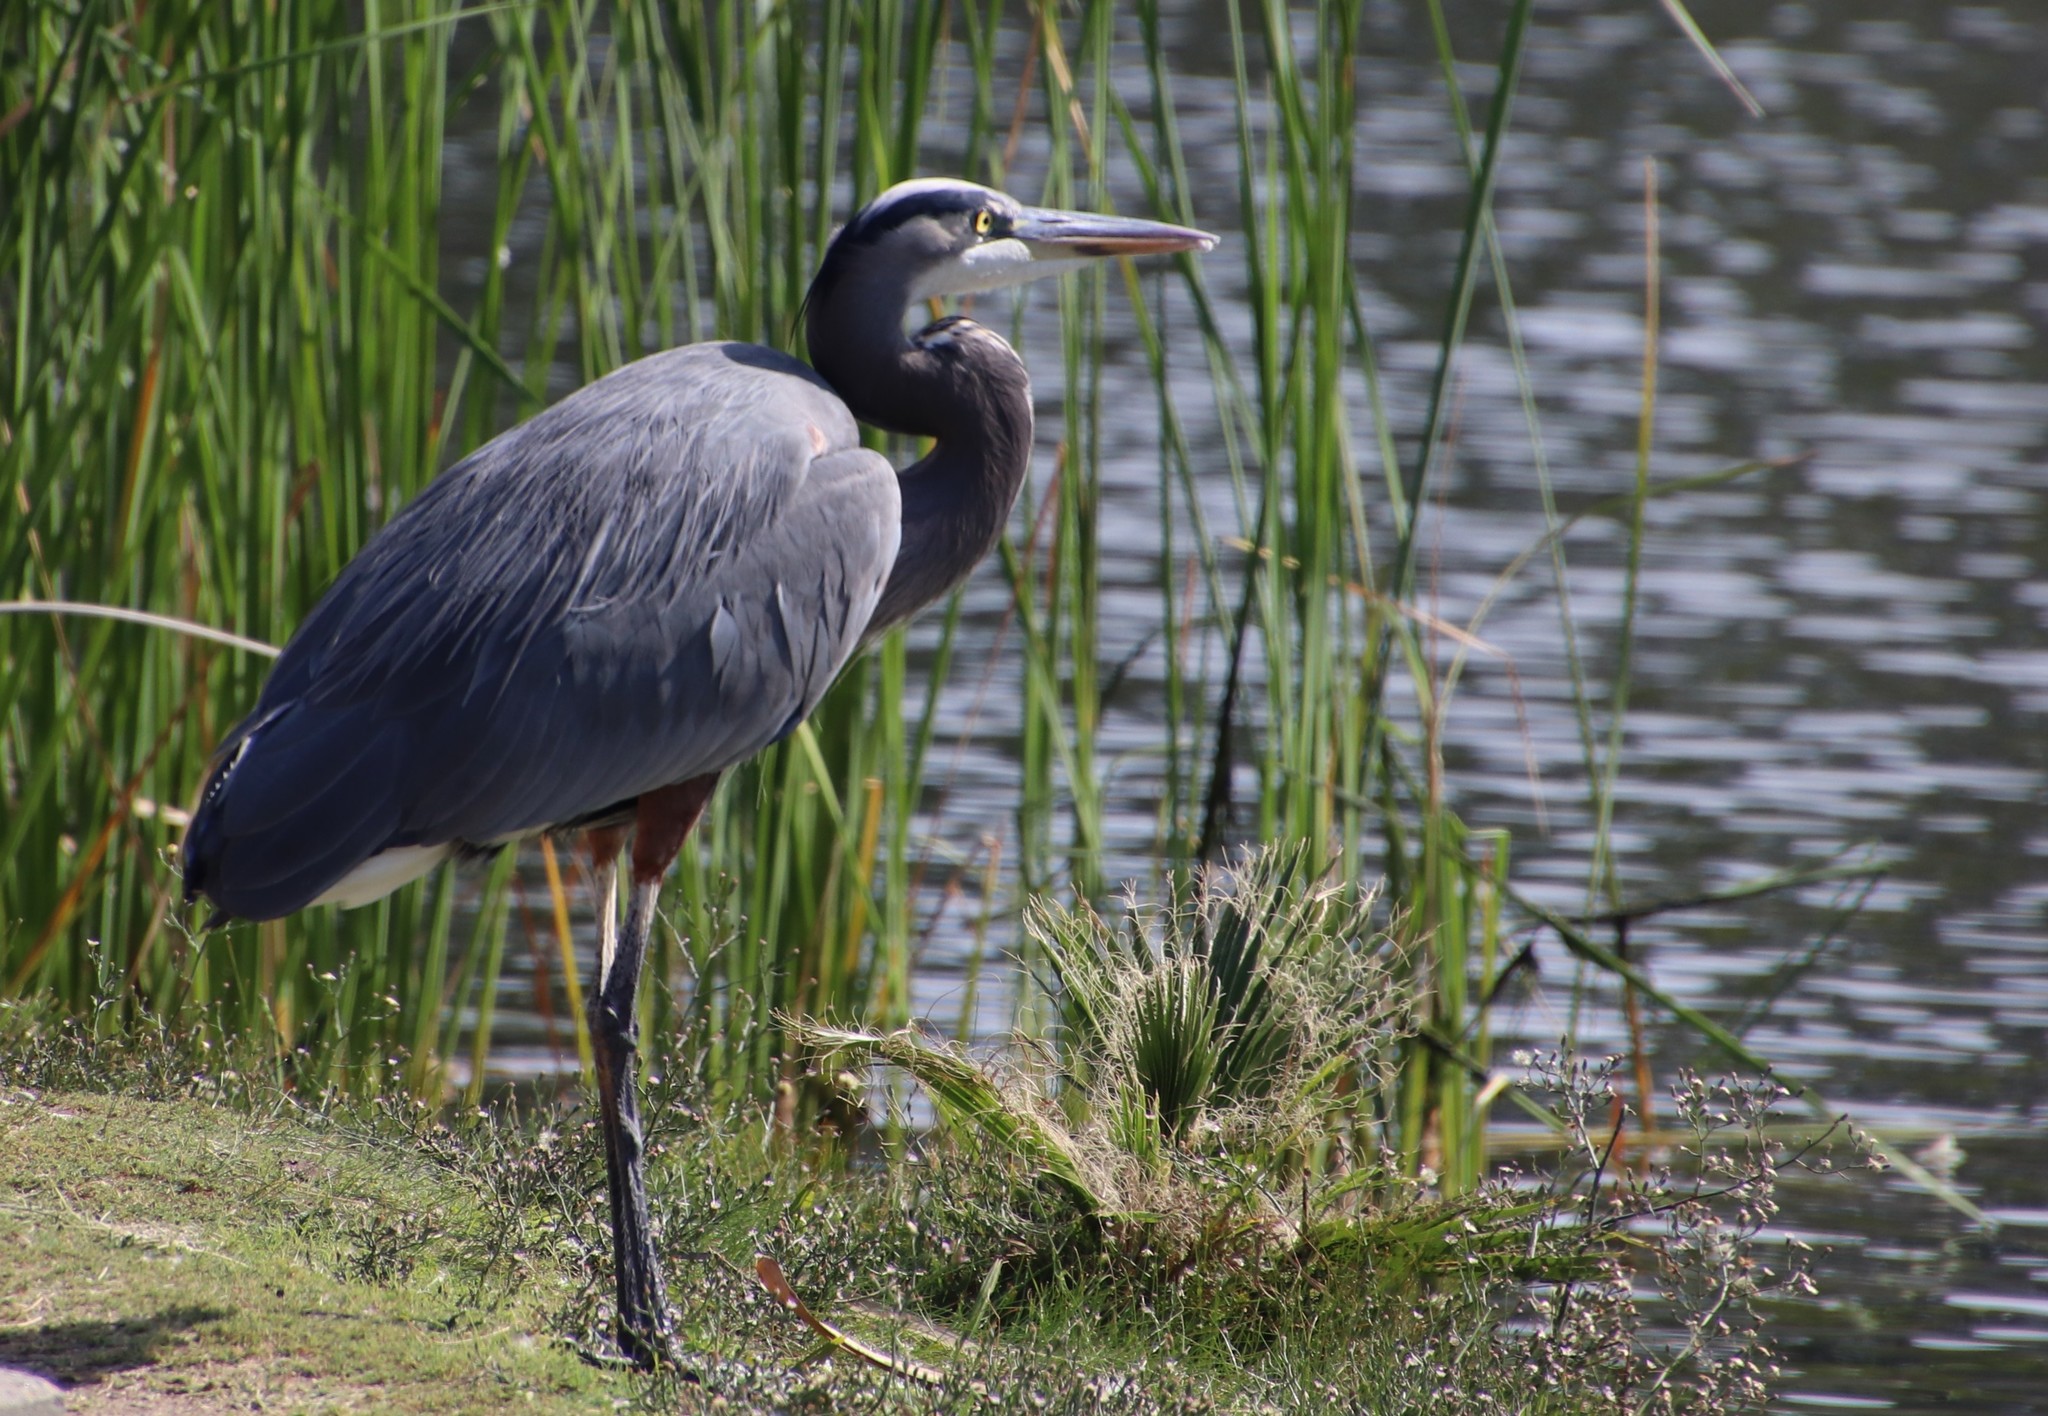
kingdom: Animalia
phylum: Chordata
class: Aves
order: Pelecaniformes
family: Ardeidae
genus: Ardea
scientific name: Ardea herodias
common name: Great blue heron
